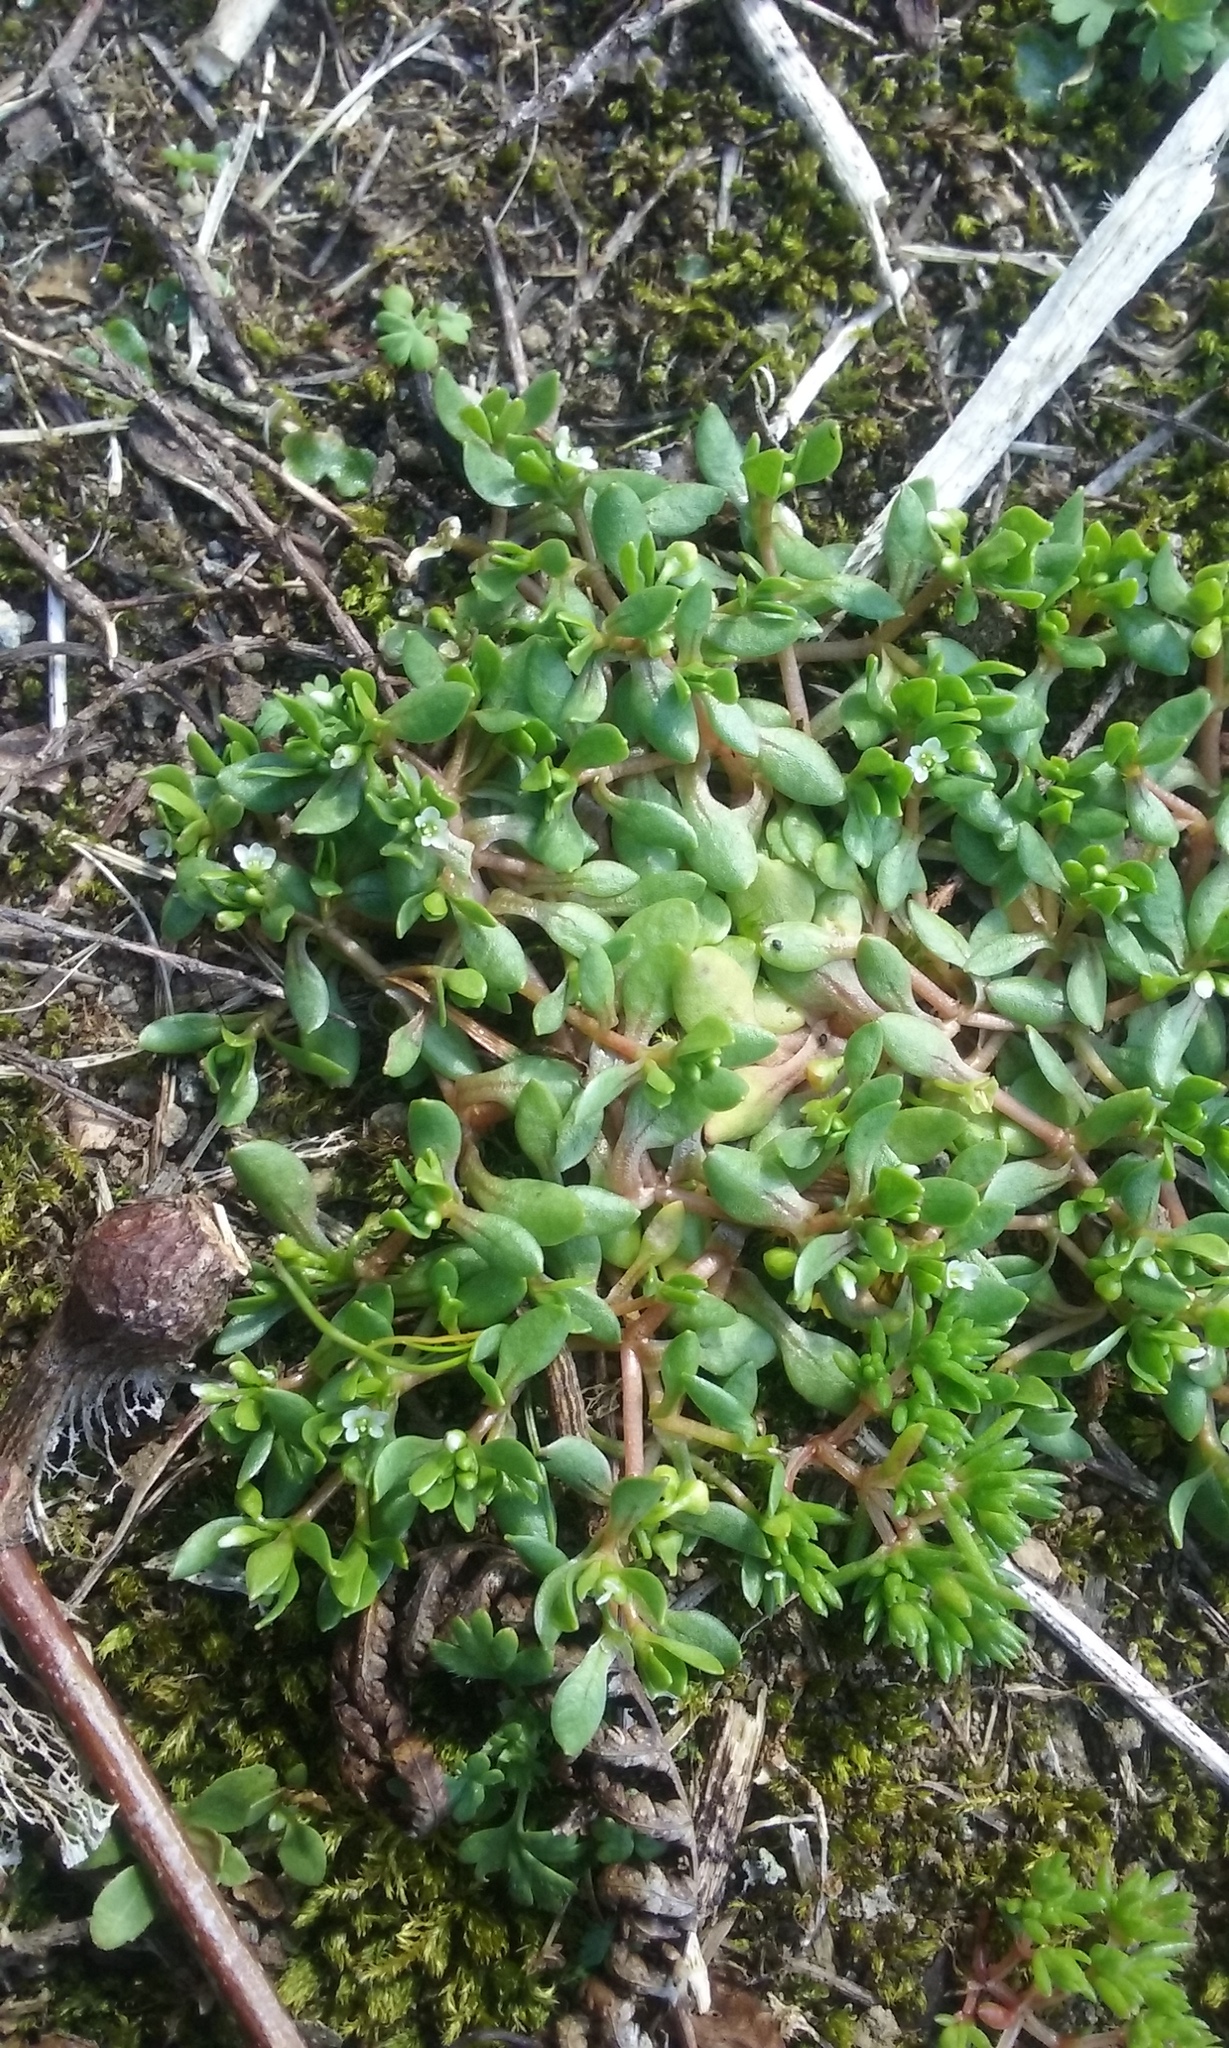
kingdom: Plantae
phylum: Tracheophyta
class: Magnoliopsida
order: Caryophyllales
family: Montiaceae
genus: Montia
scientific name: Montia fontana
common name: Blinks
